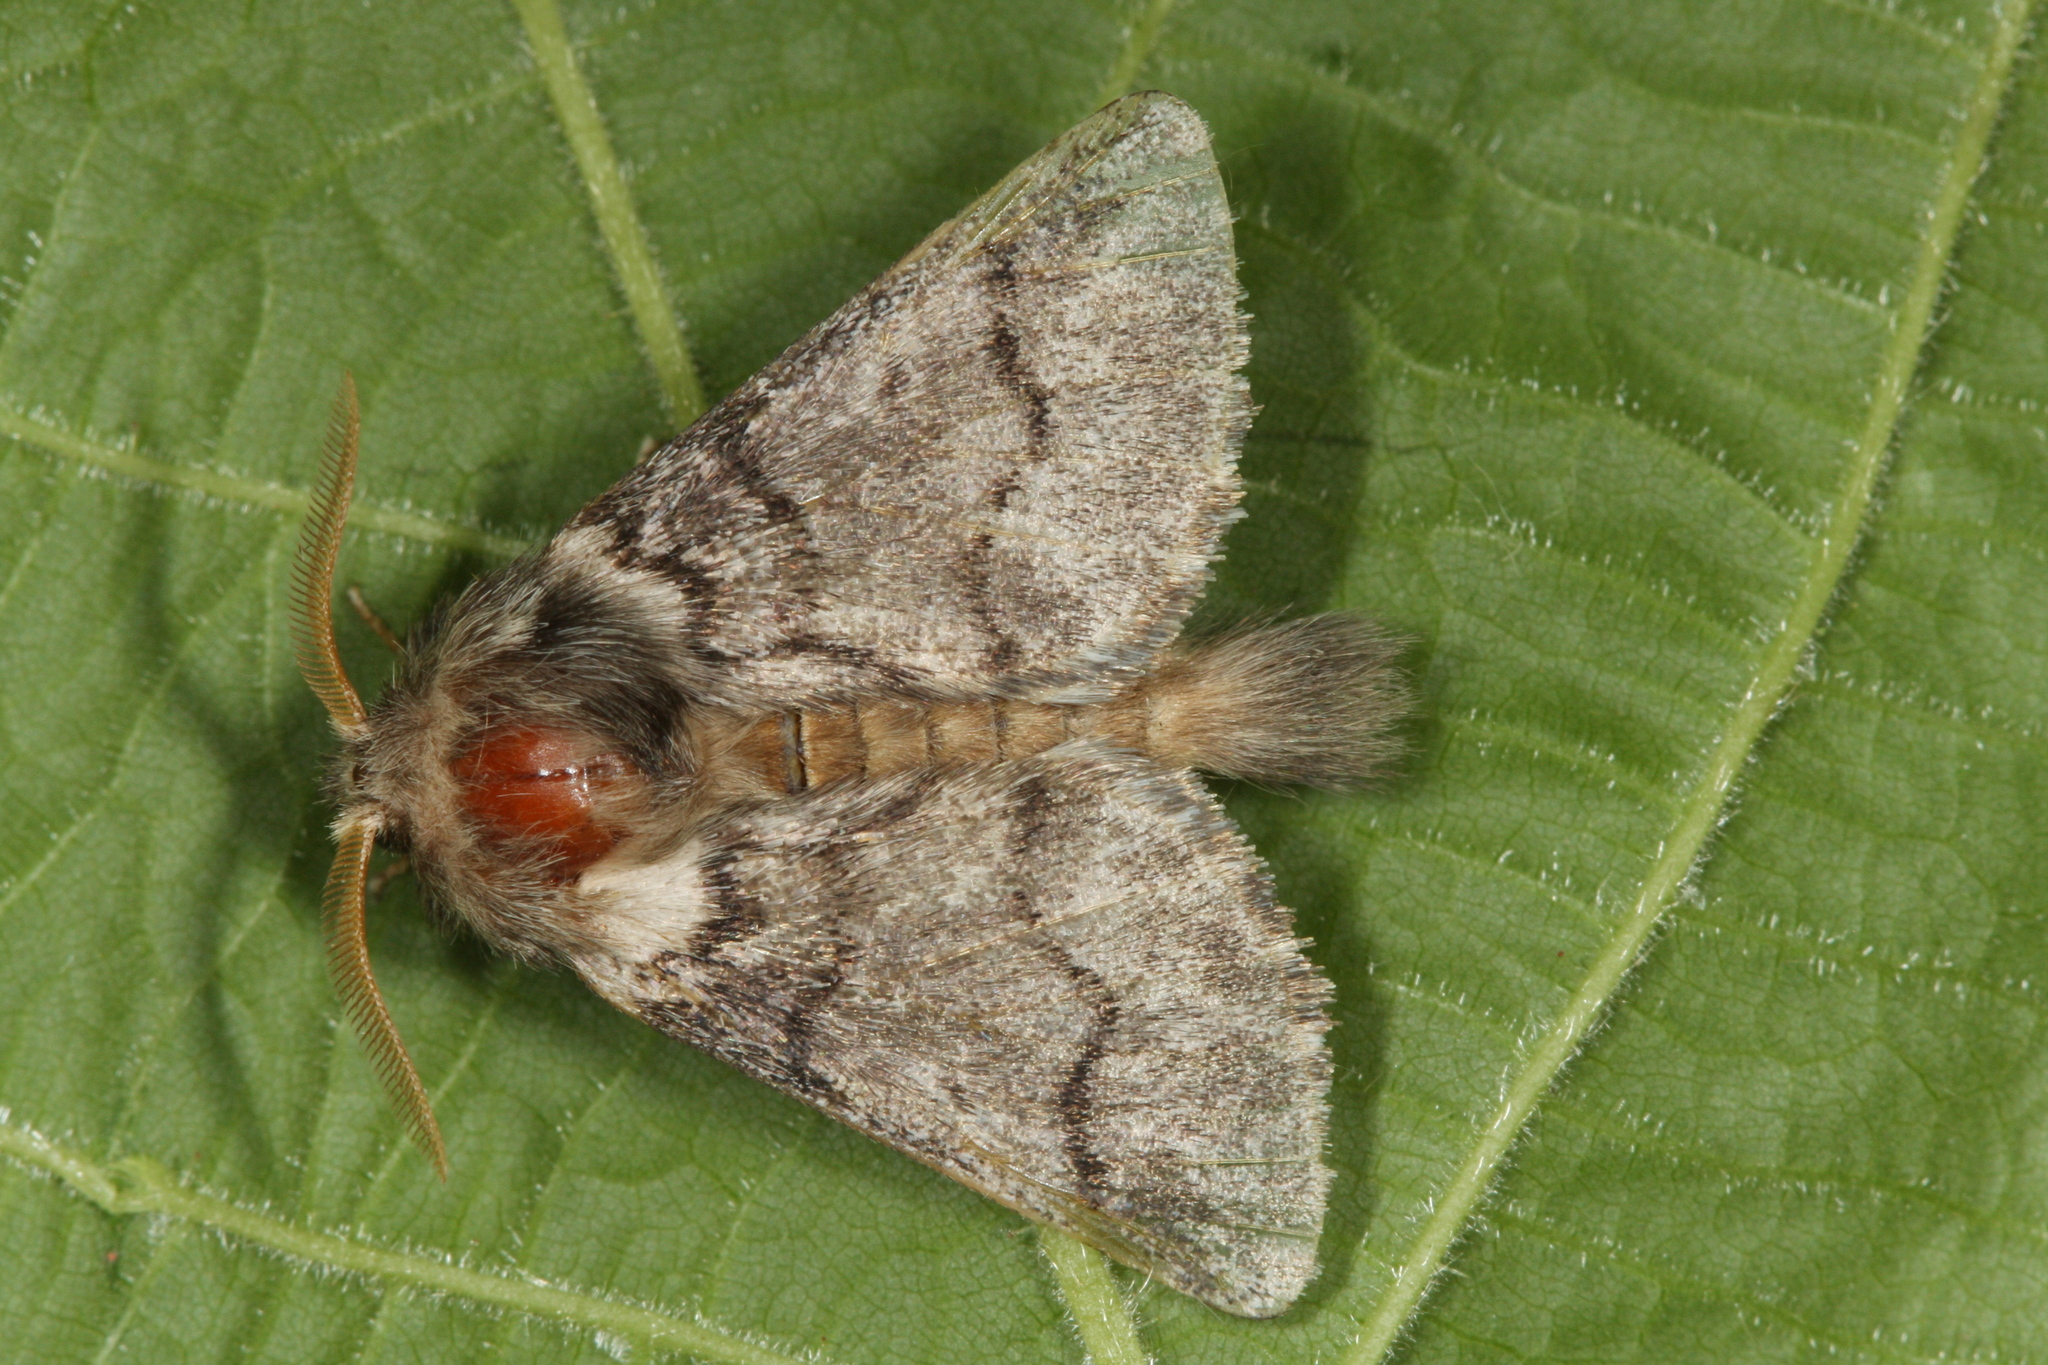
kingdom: Animalia
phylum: Arthropoda
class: Insecta
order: Lepidoptera
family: Notodontidae
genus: Thaumetopoea
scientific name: Thaumetopoea processionea
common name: Oak processionea
